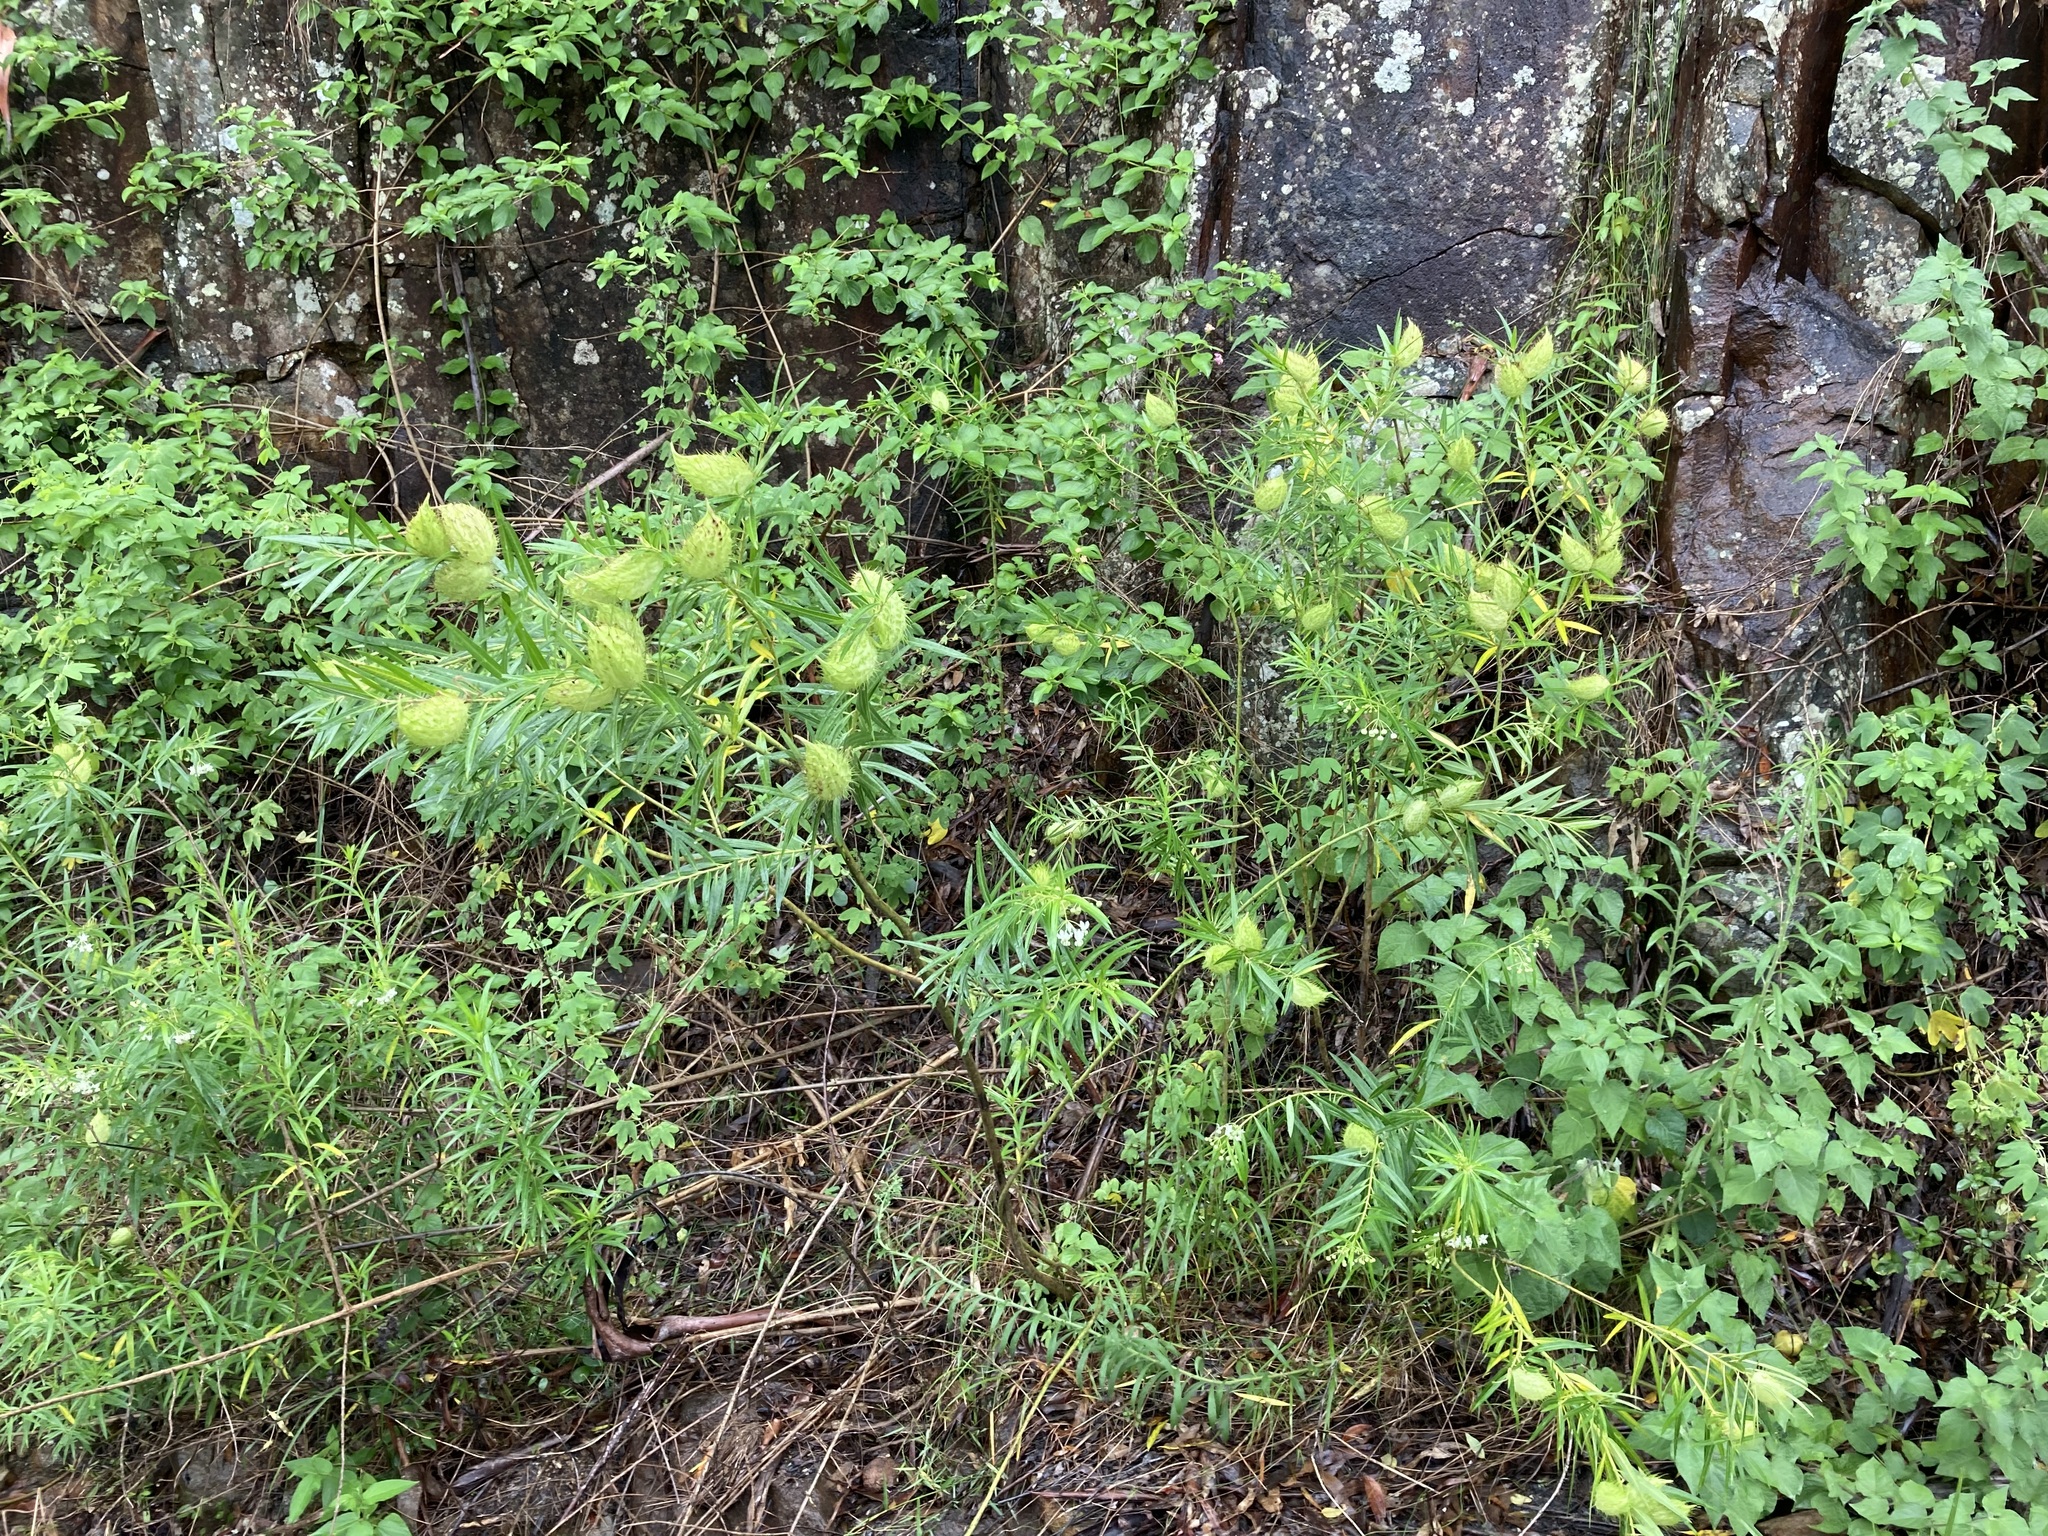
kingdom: Plantae
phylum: Tracheophyta
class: Magnoliopsida
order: Gentianales
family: Apocynaceae
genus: Gomphocarpus
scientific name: Gomphocarpus fruticosus
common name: Milkweed
